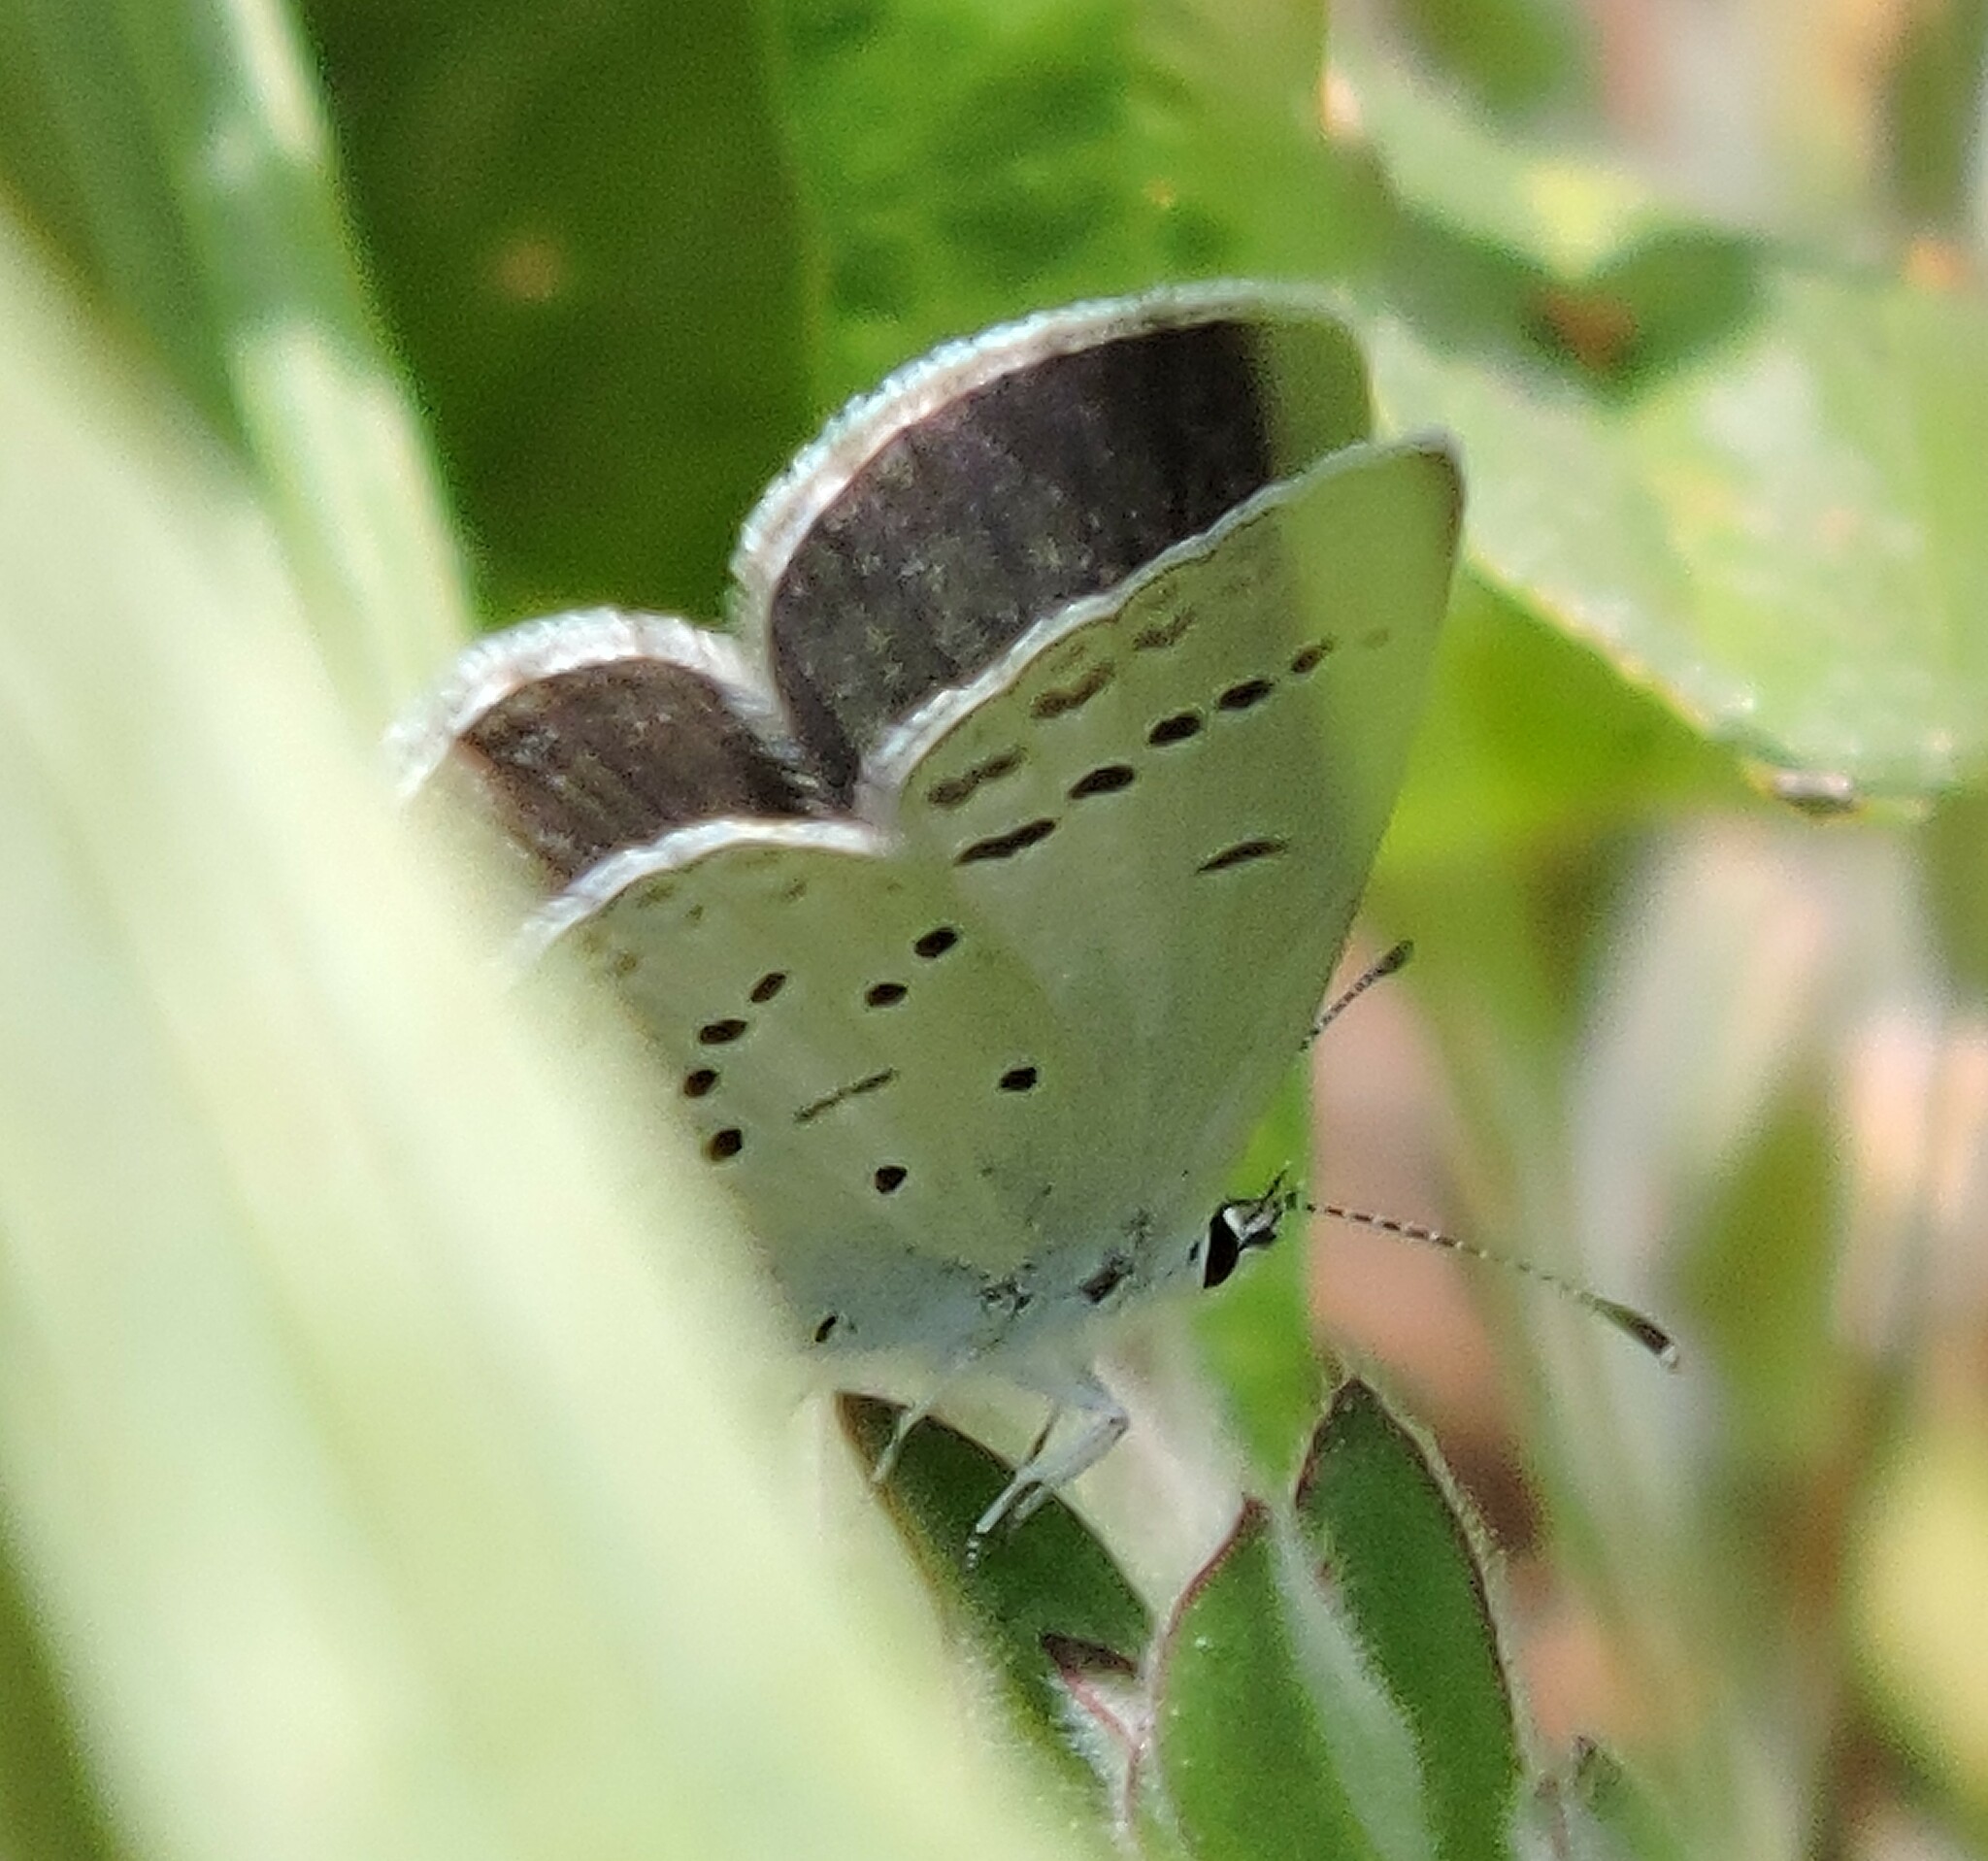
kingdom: Animalia
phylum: Arthropoda
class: Insecta
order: Lepidoptera
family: Lycaenidae
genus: Icaricia
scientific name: Icaricia icarioides
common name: Boisduval's blue
